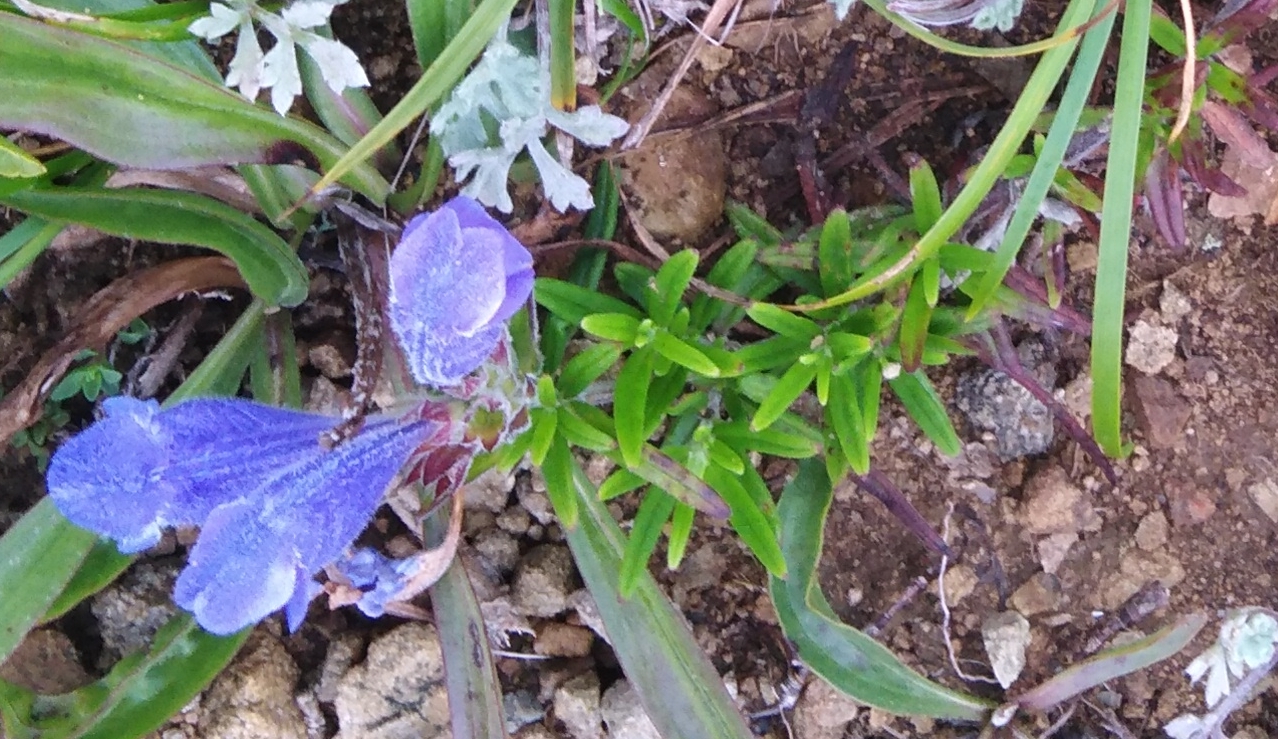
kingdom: Plantae
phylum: Tracheophyta
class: Magnoliopsida
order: Lamiales
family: Lamiaceae
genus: Dracocephalum
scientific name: Dracocephalum charkeviczii
